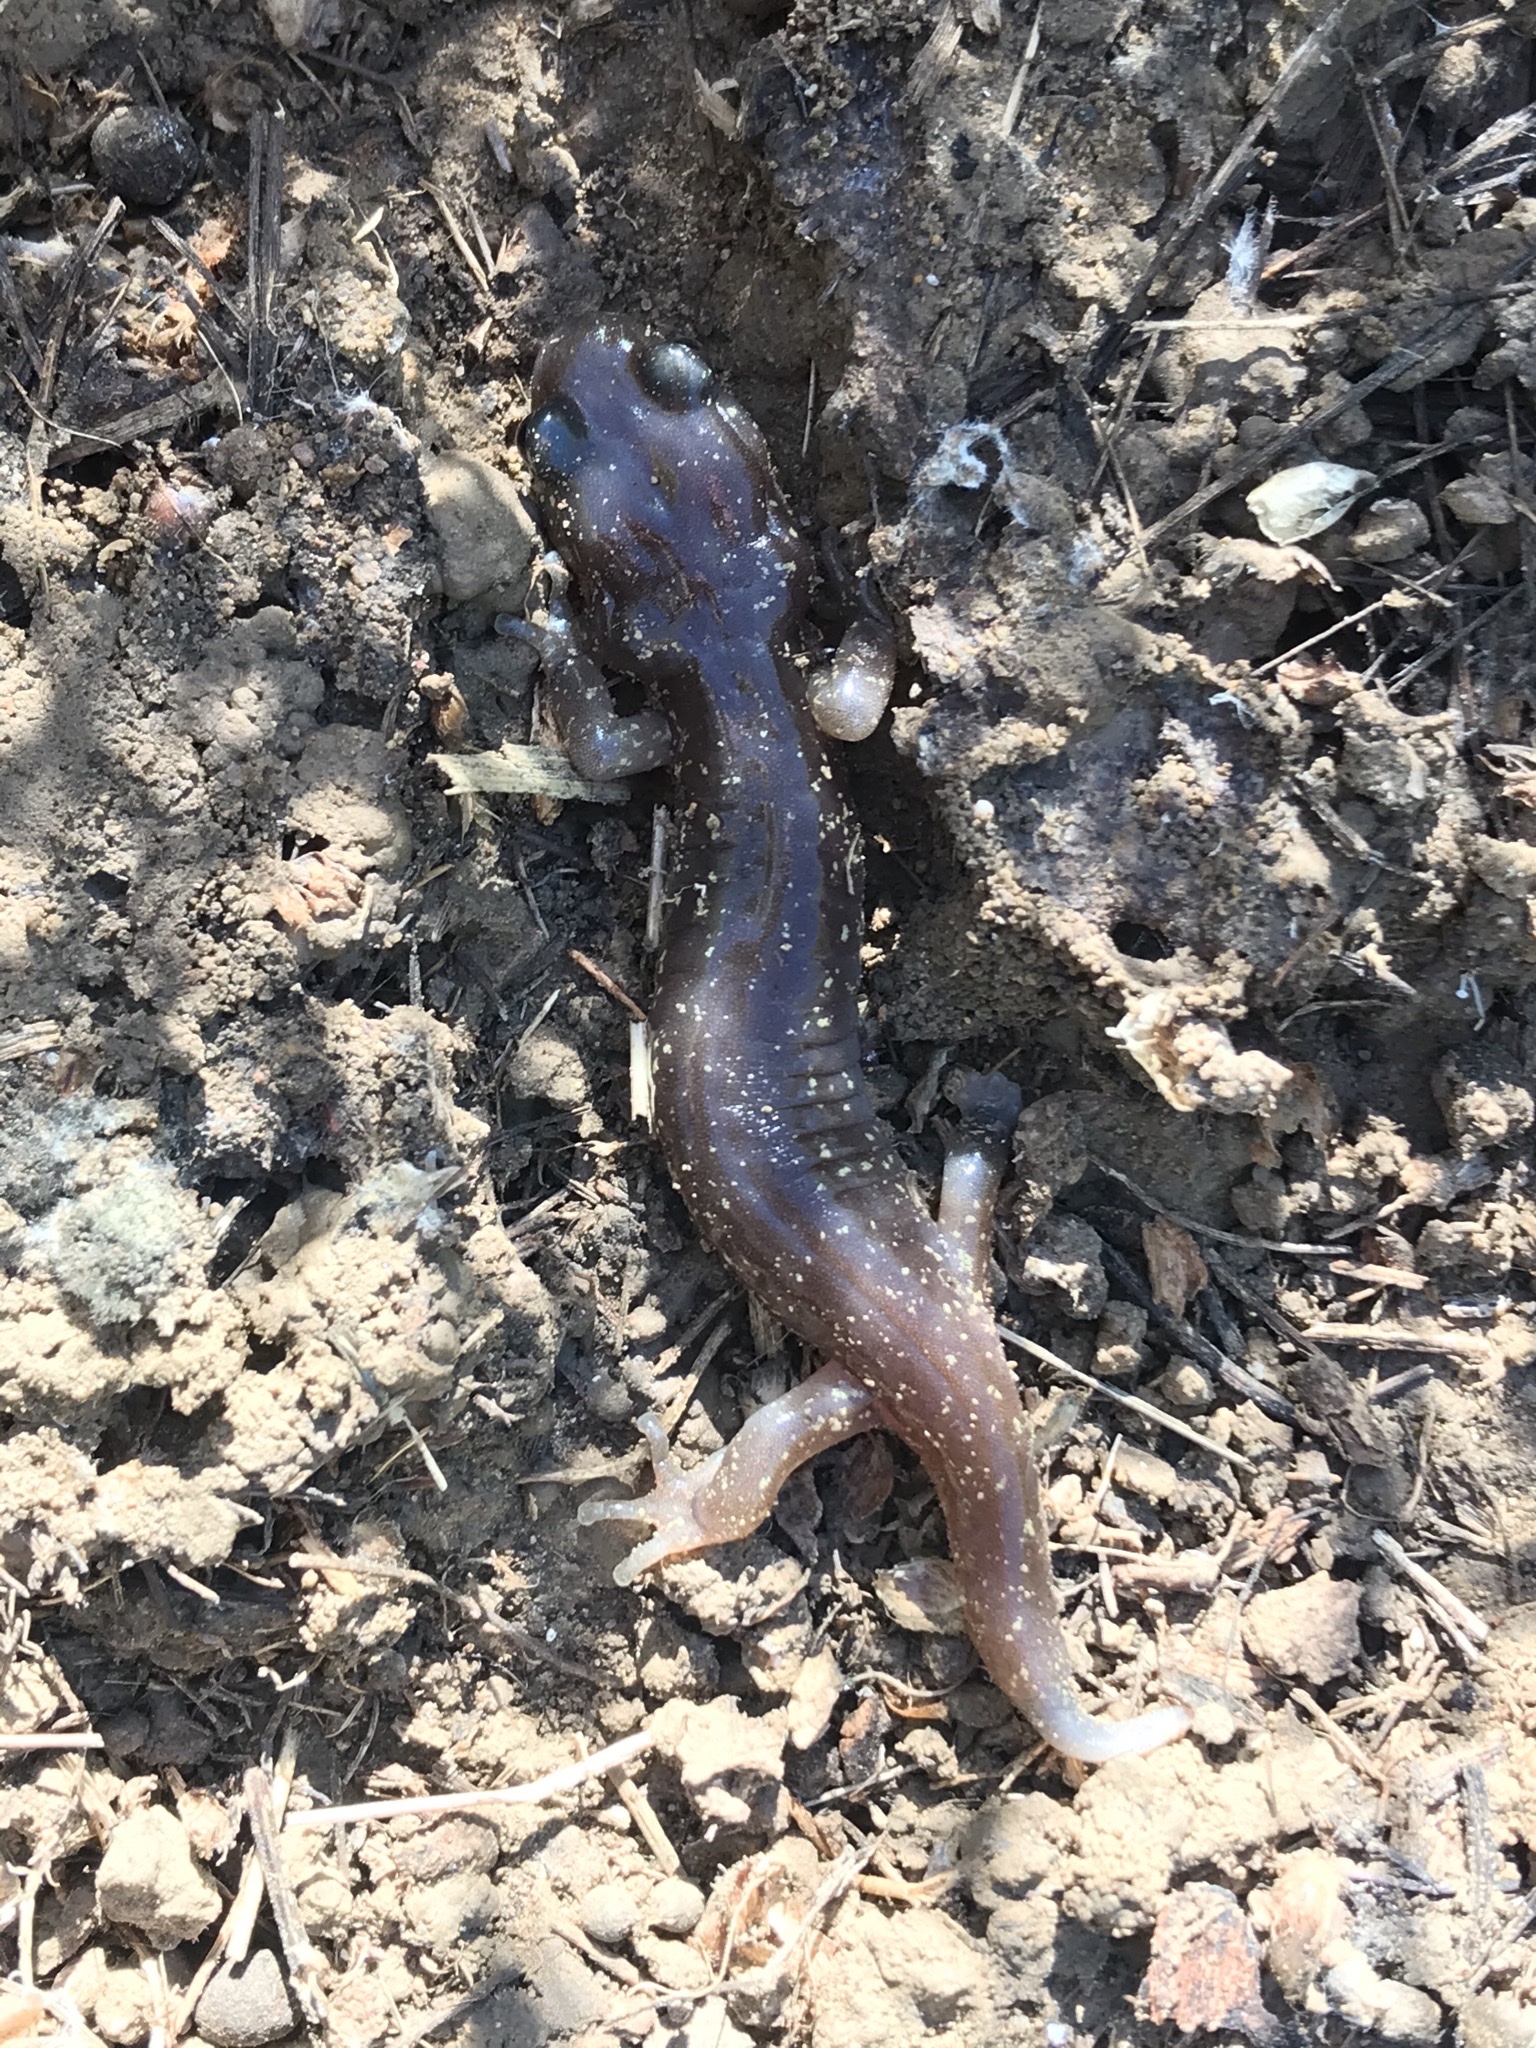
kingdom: Animalia
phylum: Chordata
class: Amphibia
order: Caudata
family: Plethodontidae
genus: Aneides
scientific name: Aneides lugubris
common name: Arboreal salamander
